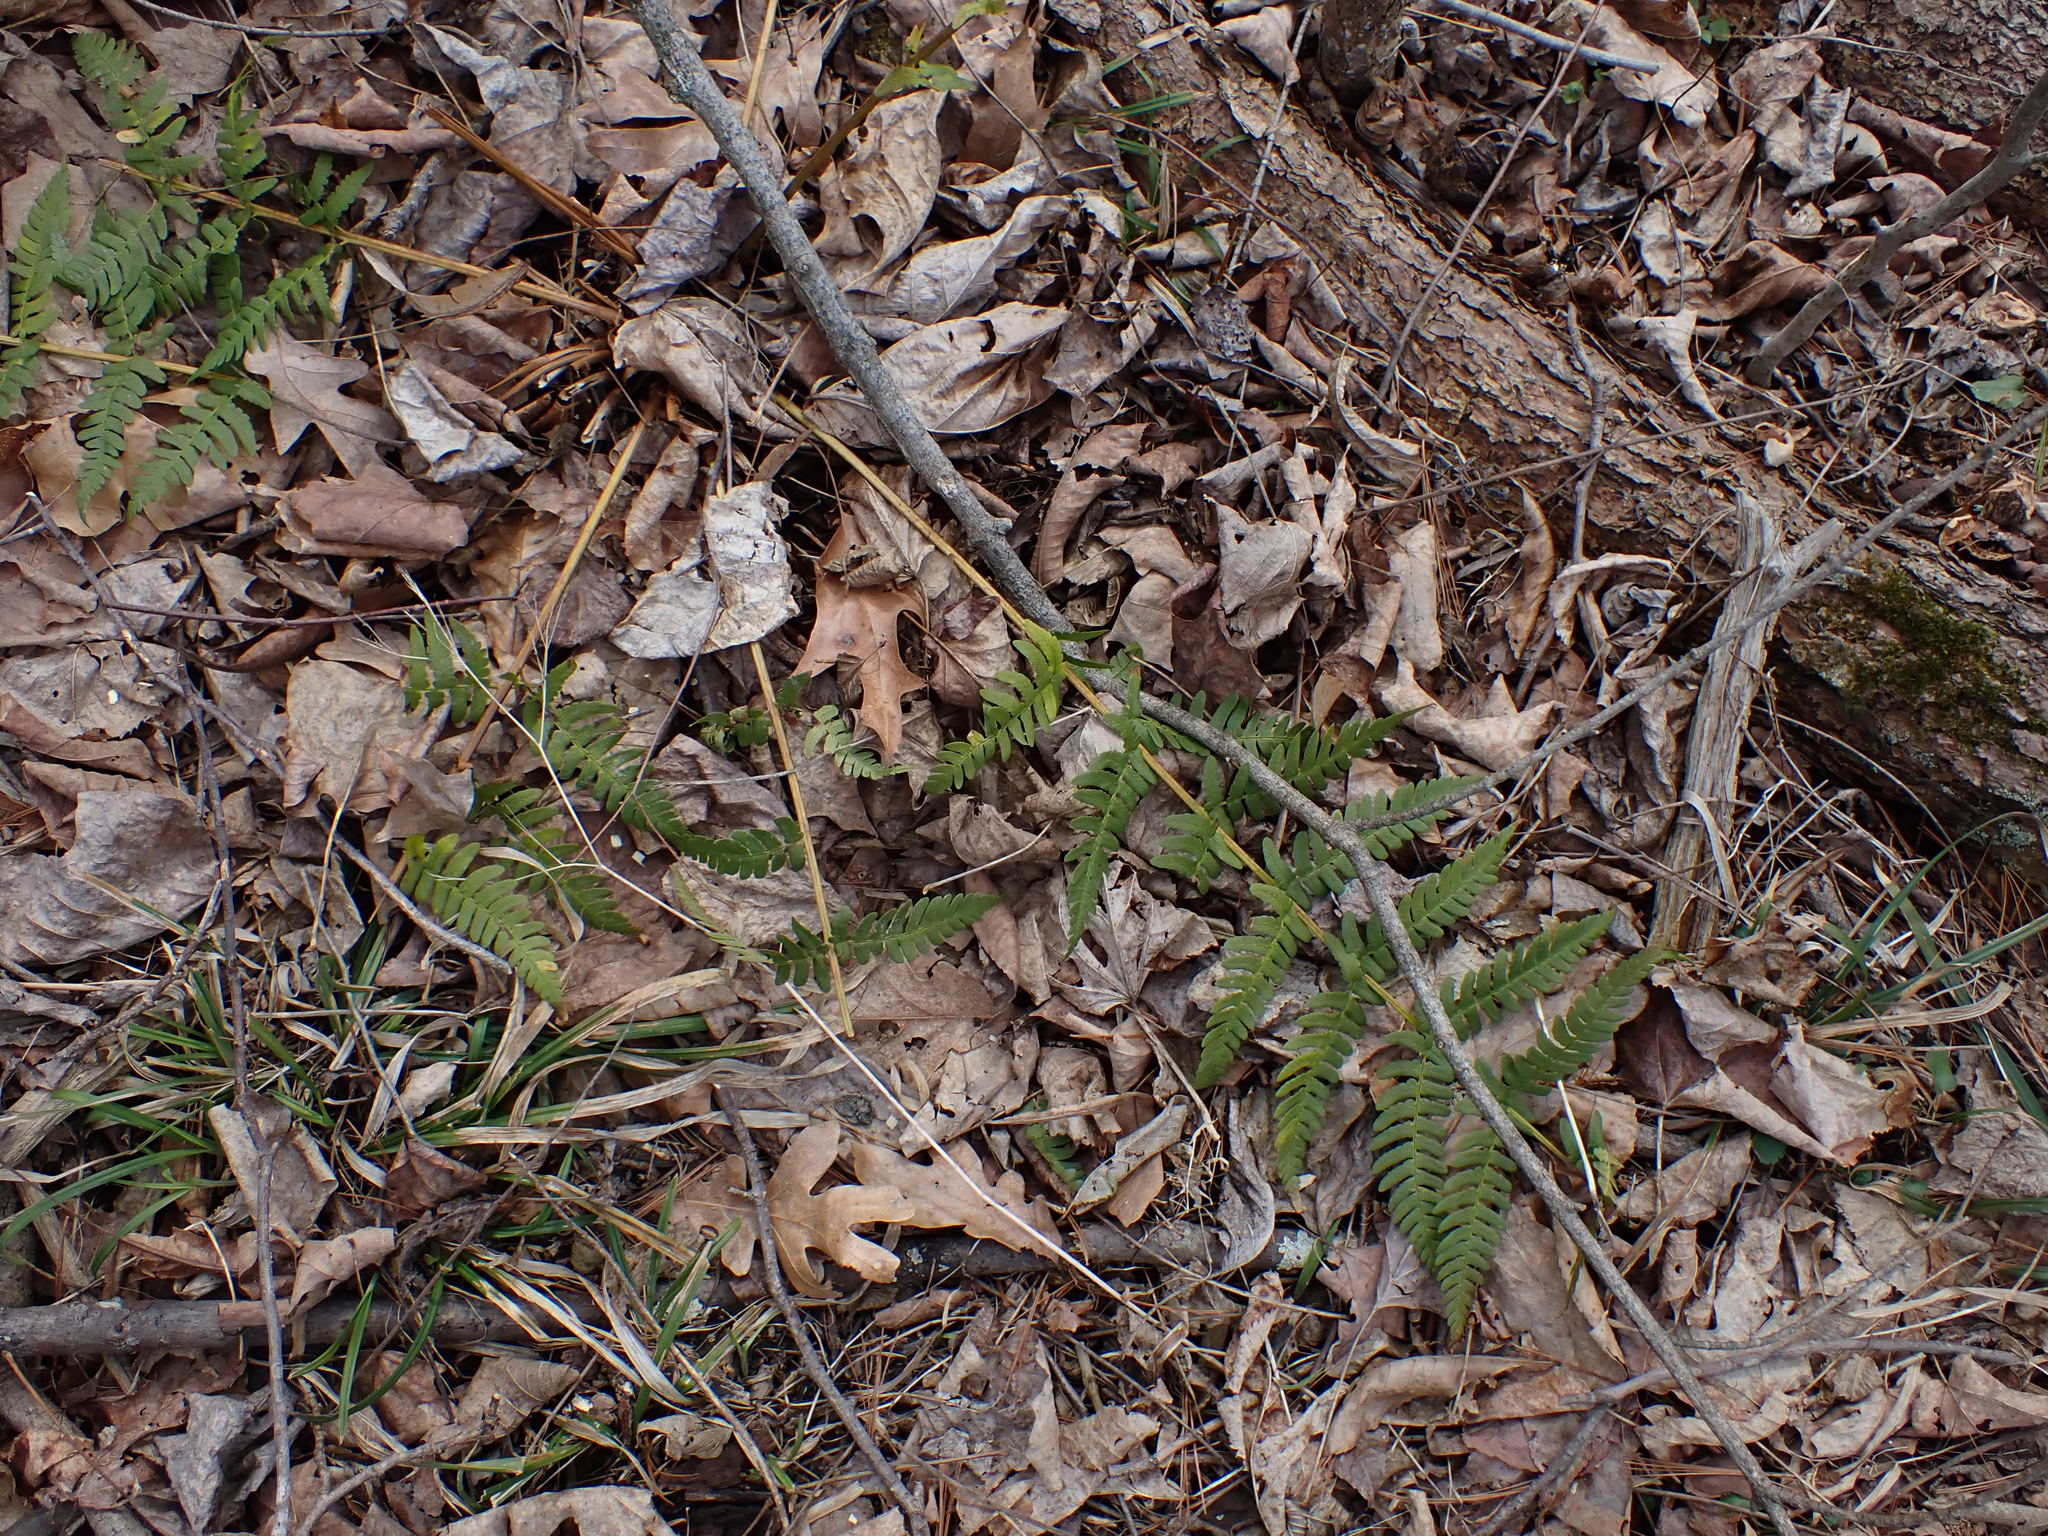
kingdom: Plantae
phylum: Tracheophyta
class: Polypodiopsida
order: Polypodiales
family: Dryopteridaceae
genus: Polystichum
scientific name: Polystichum acrostichoides
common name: Christmas fern
